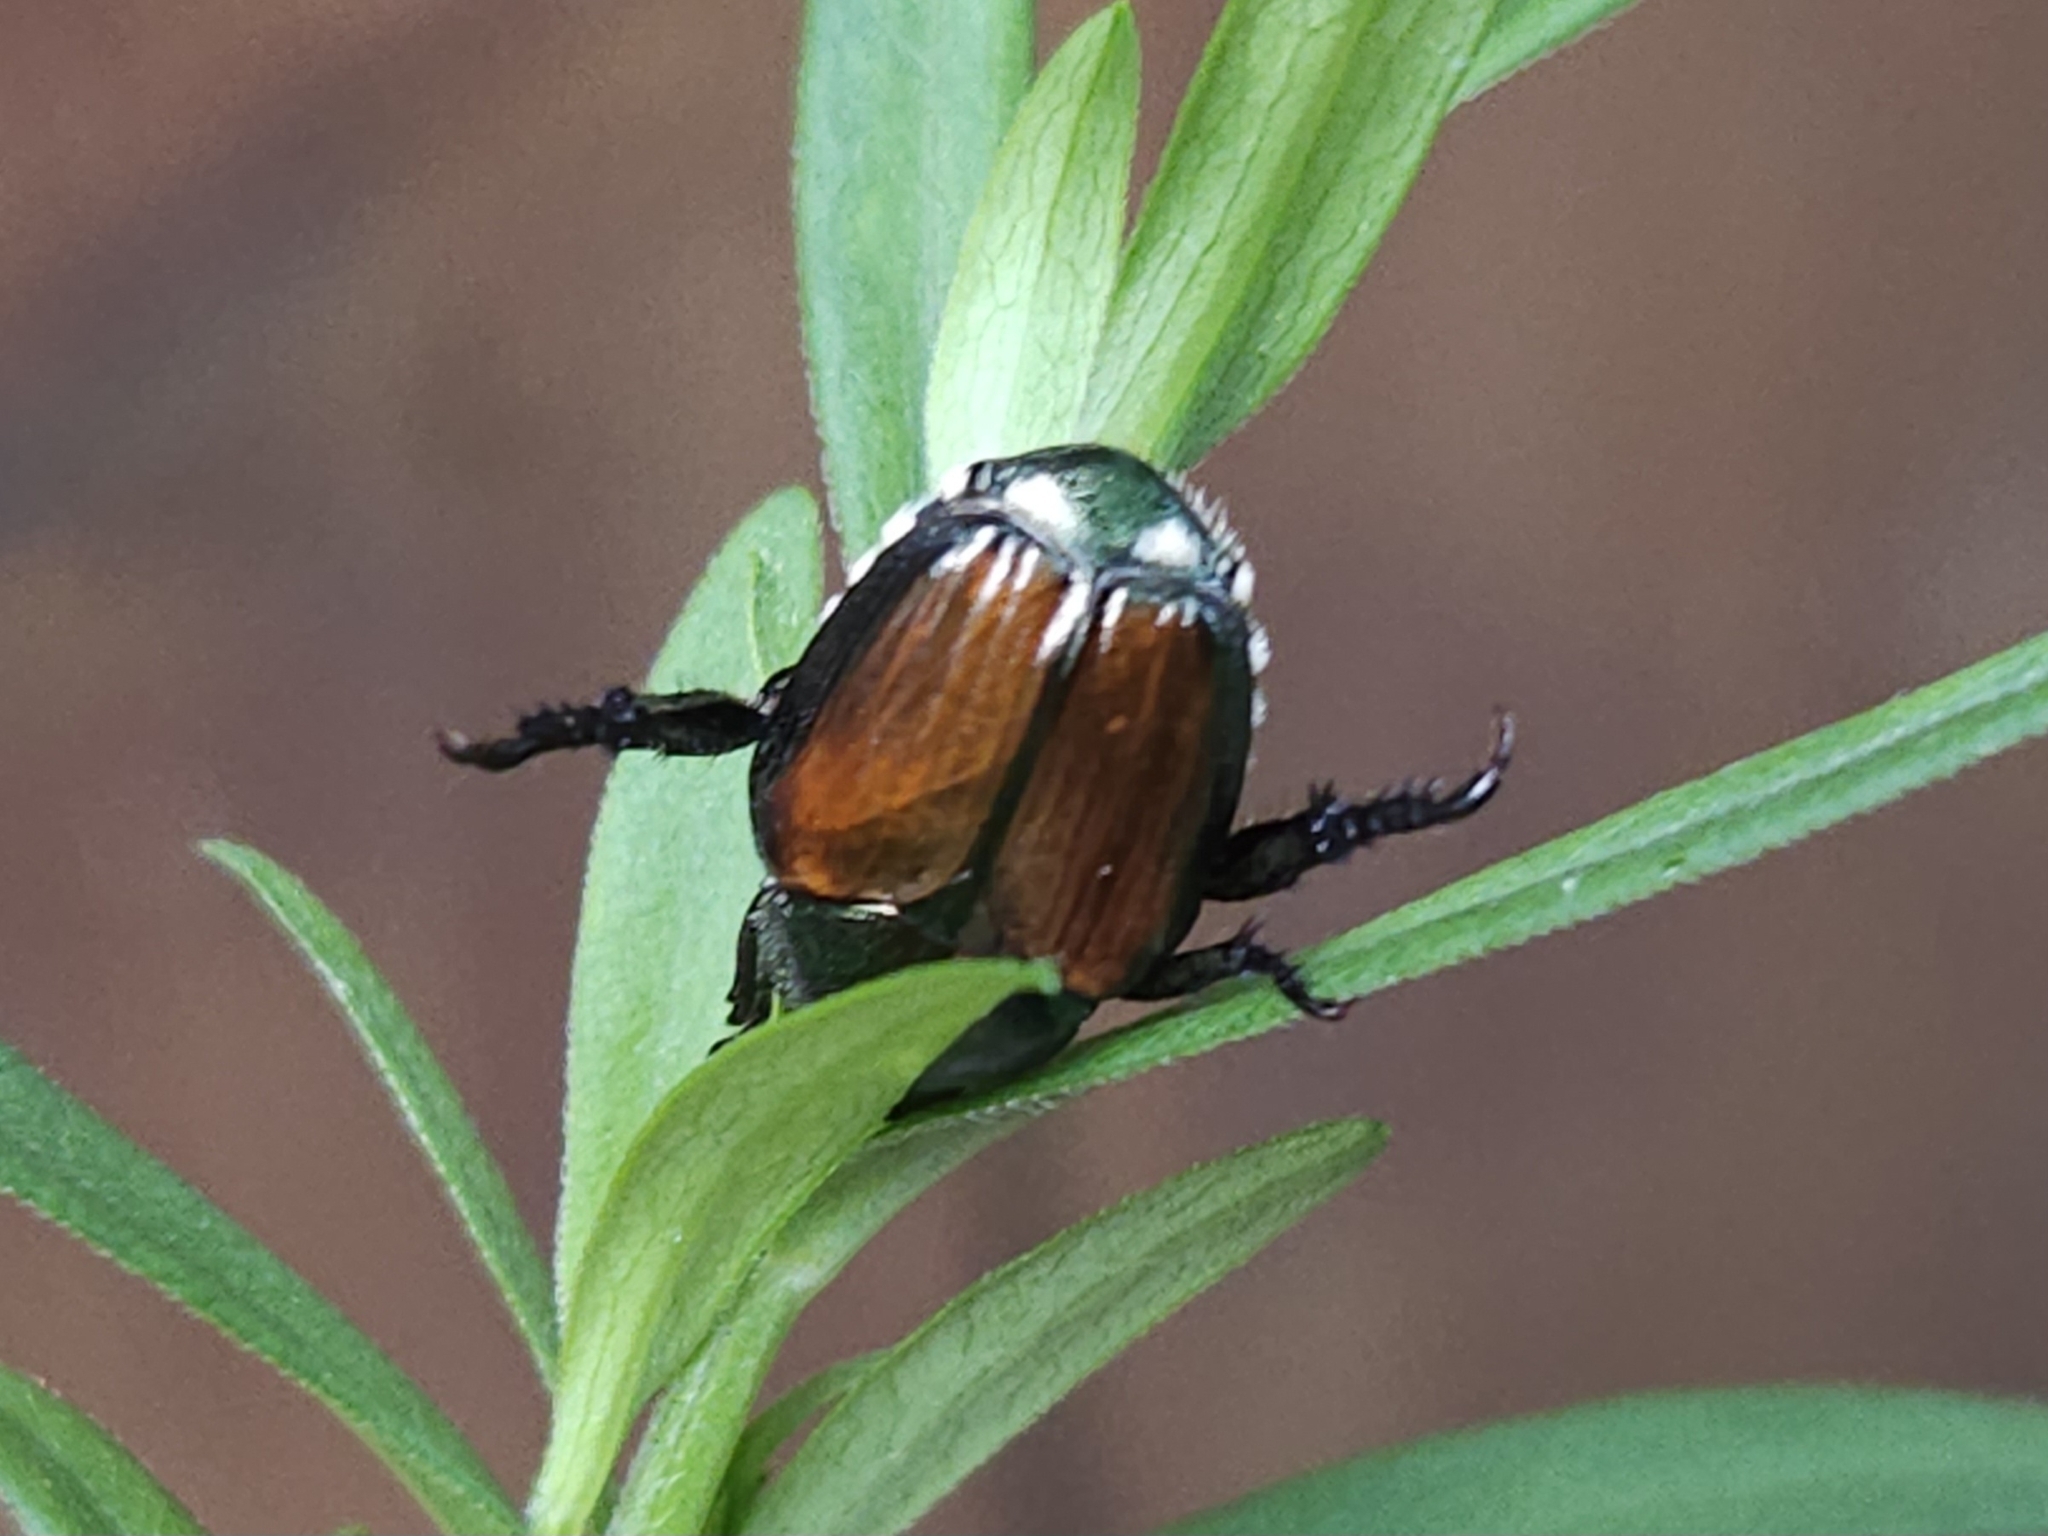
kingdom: Animalia
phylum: Arthropoda
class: Insecta
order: Coleoptera
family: Scarabaeidae
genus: Popillia
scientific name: Popillia japonica
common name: Japanese beetle
